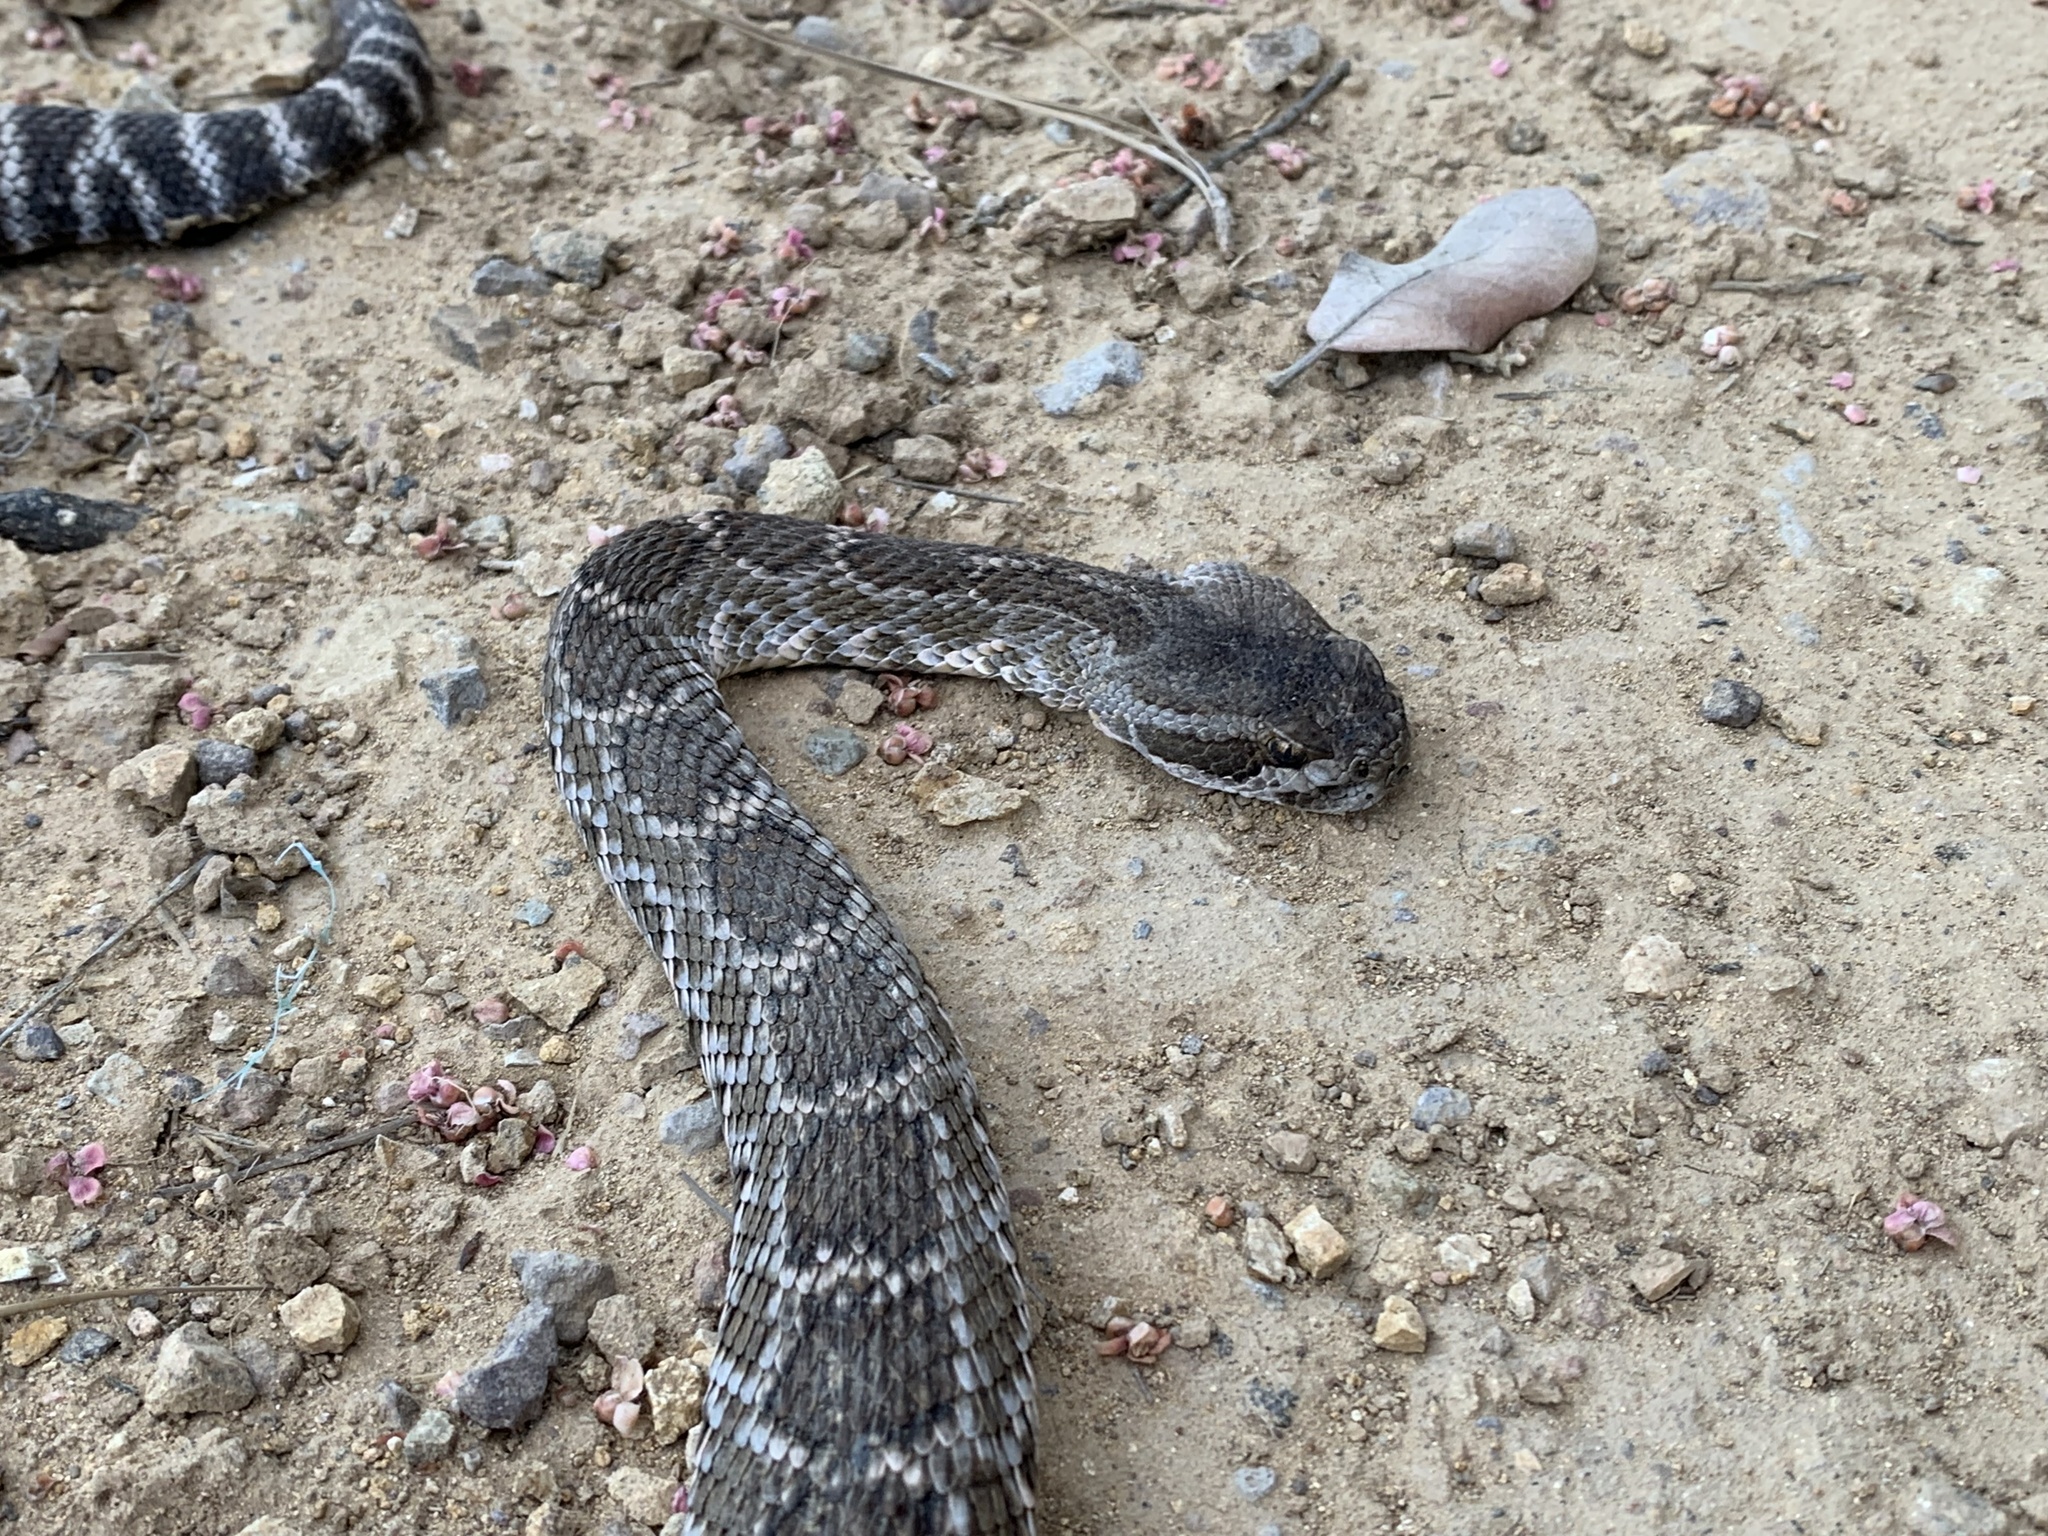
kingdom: Animalia
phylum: Chordata
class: Squamata
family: Viperidae
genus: Crotalus
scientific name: Crotalus oreganus
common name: Abyssus
